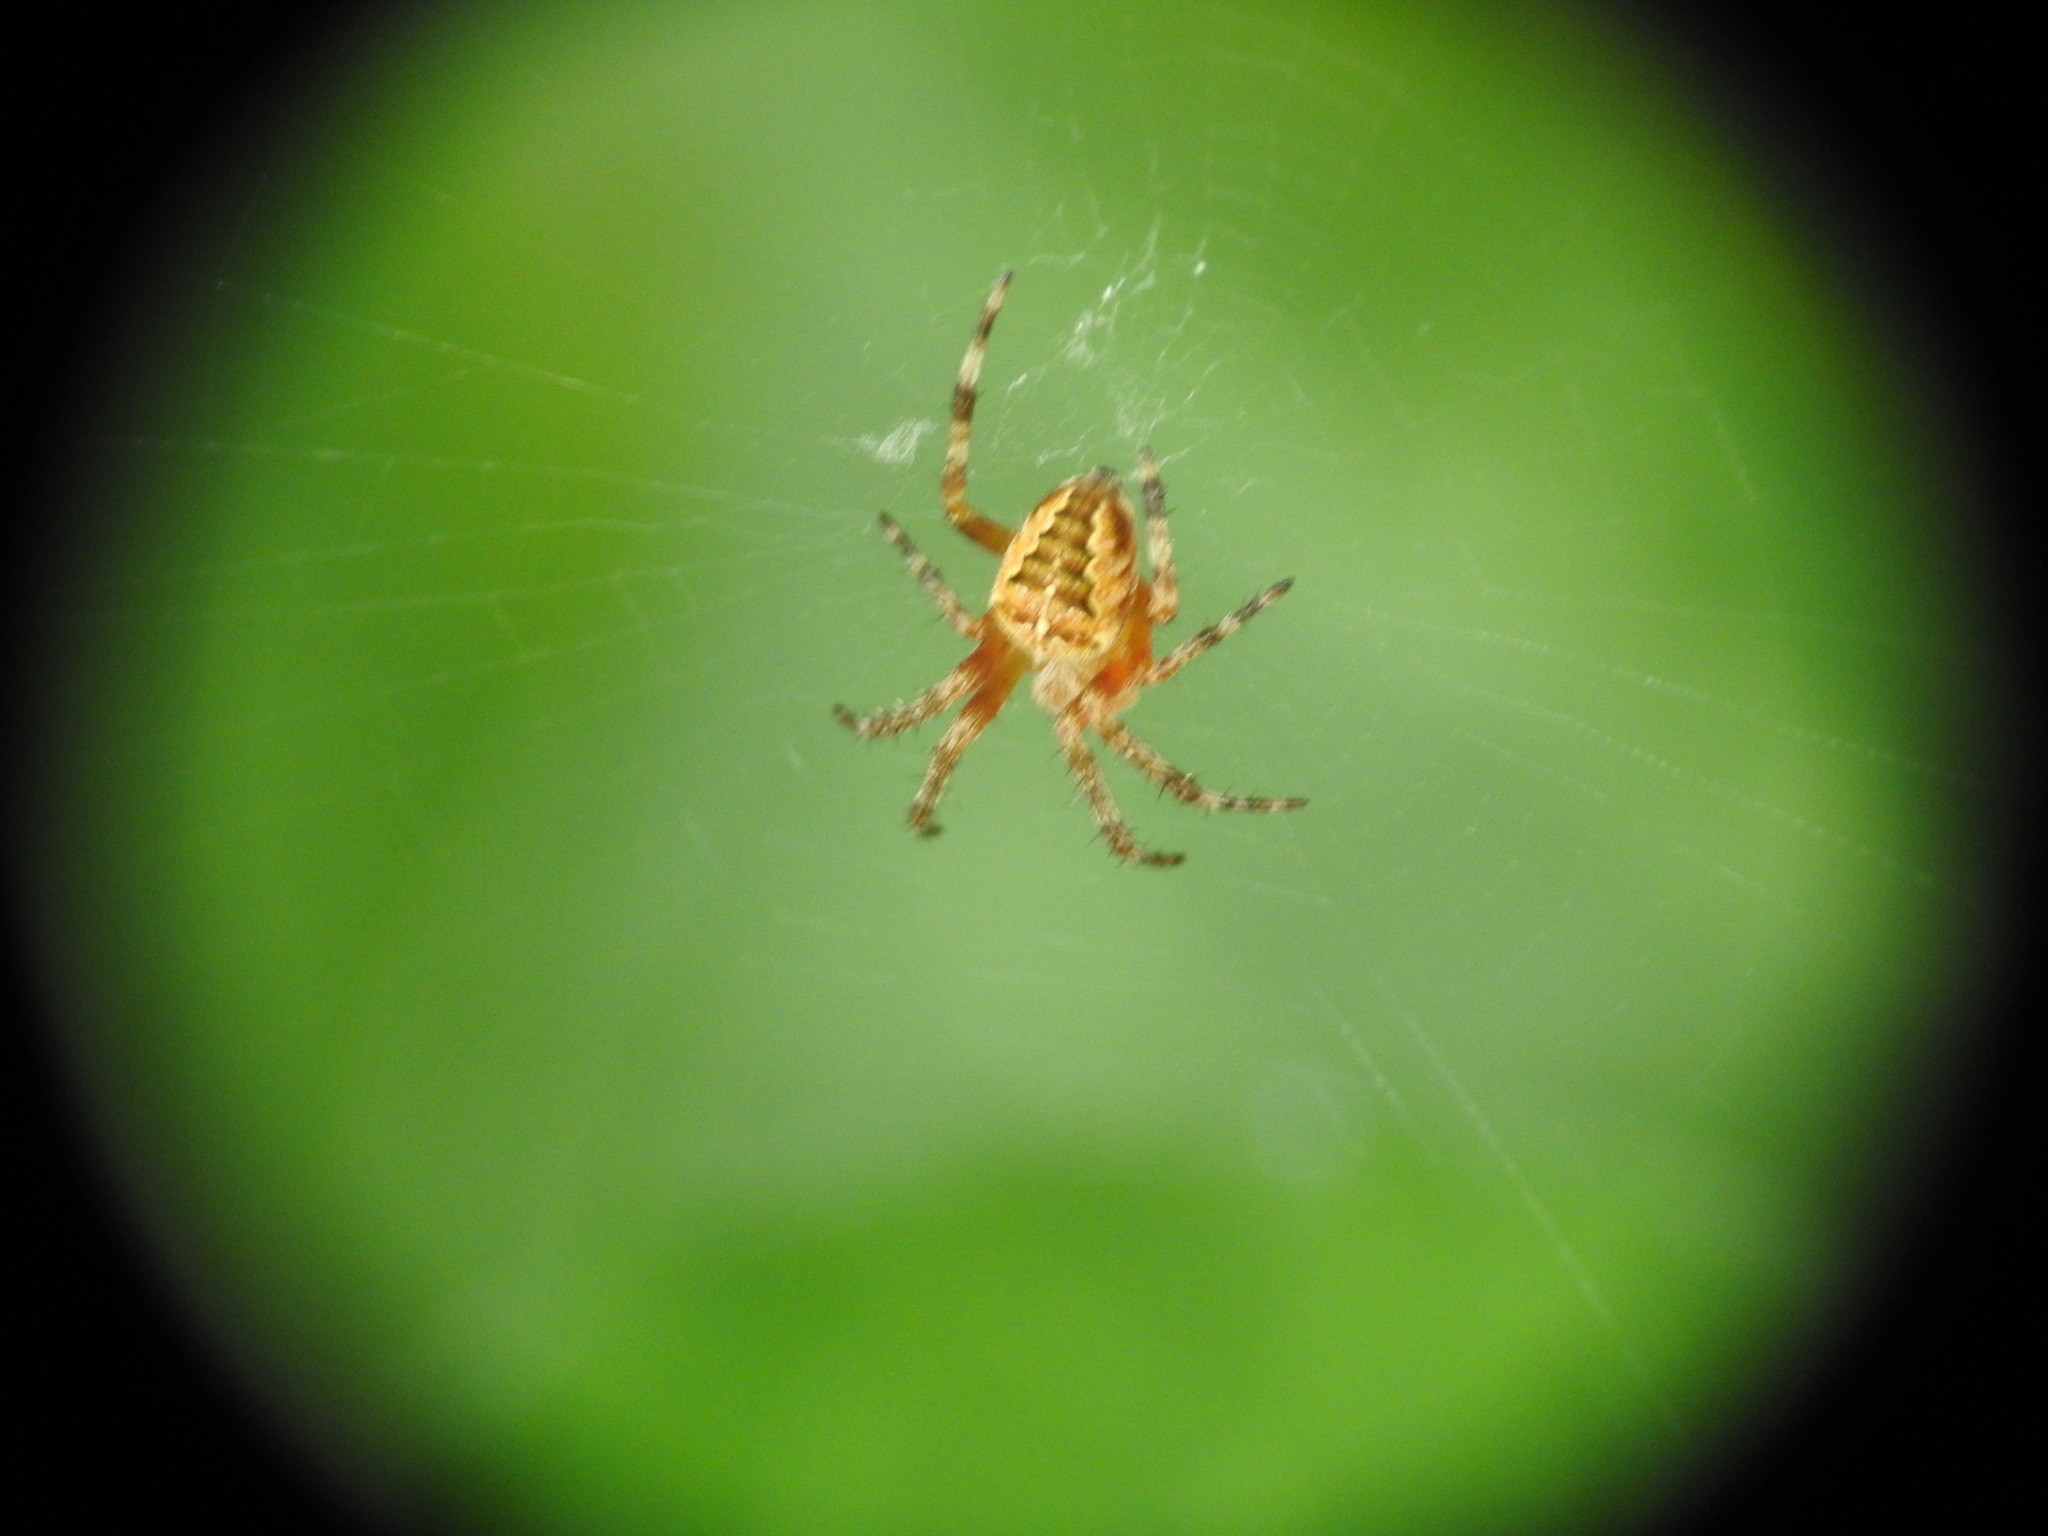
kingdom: Animalia
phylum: Arthropoda
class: Arachnida
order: Araneae
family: Araneidae
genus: Araneus
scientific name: Araneus diadematus
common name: Cross orbweaver
